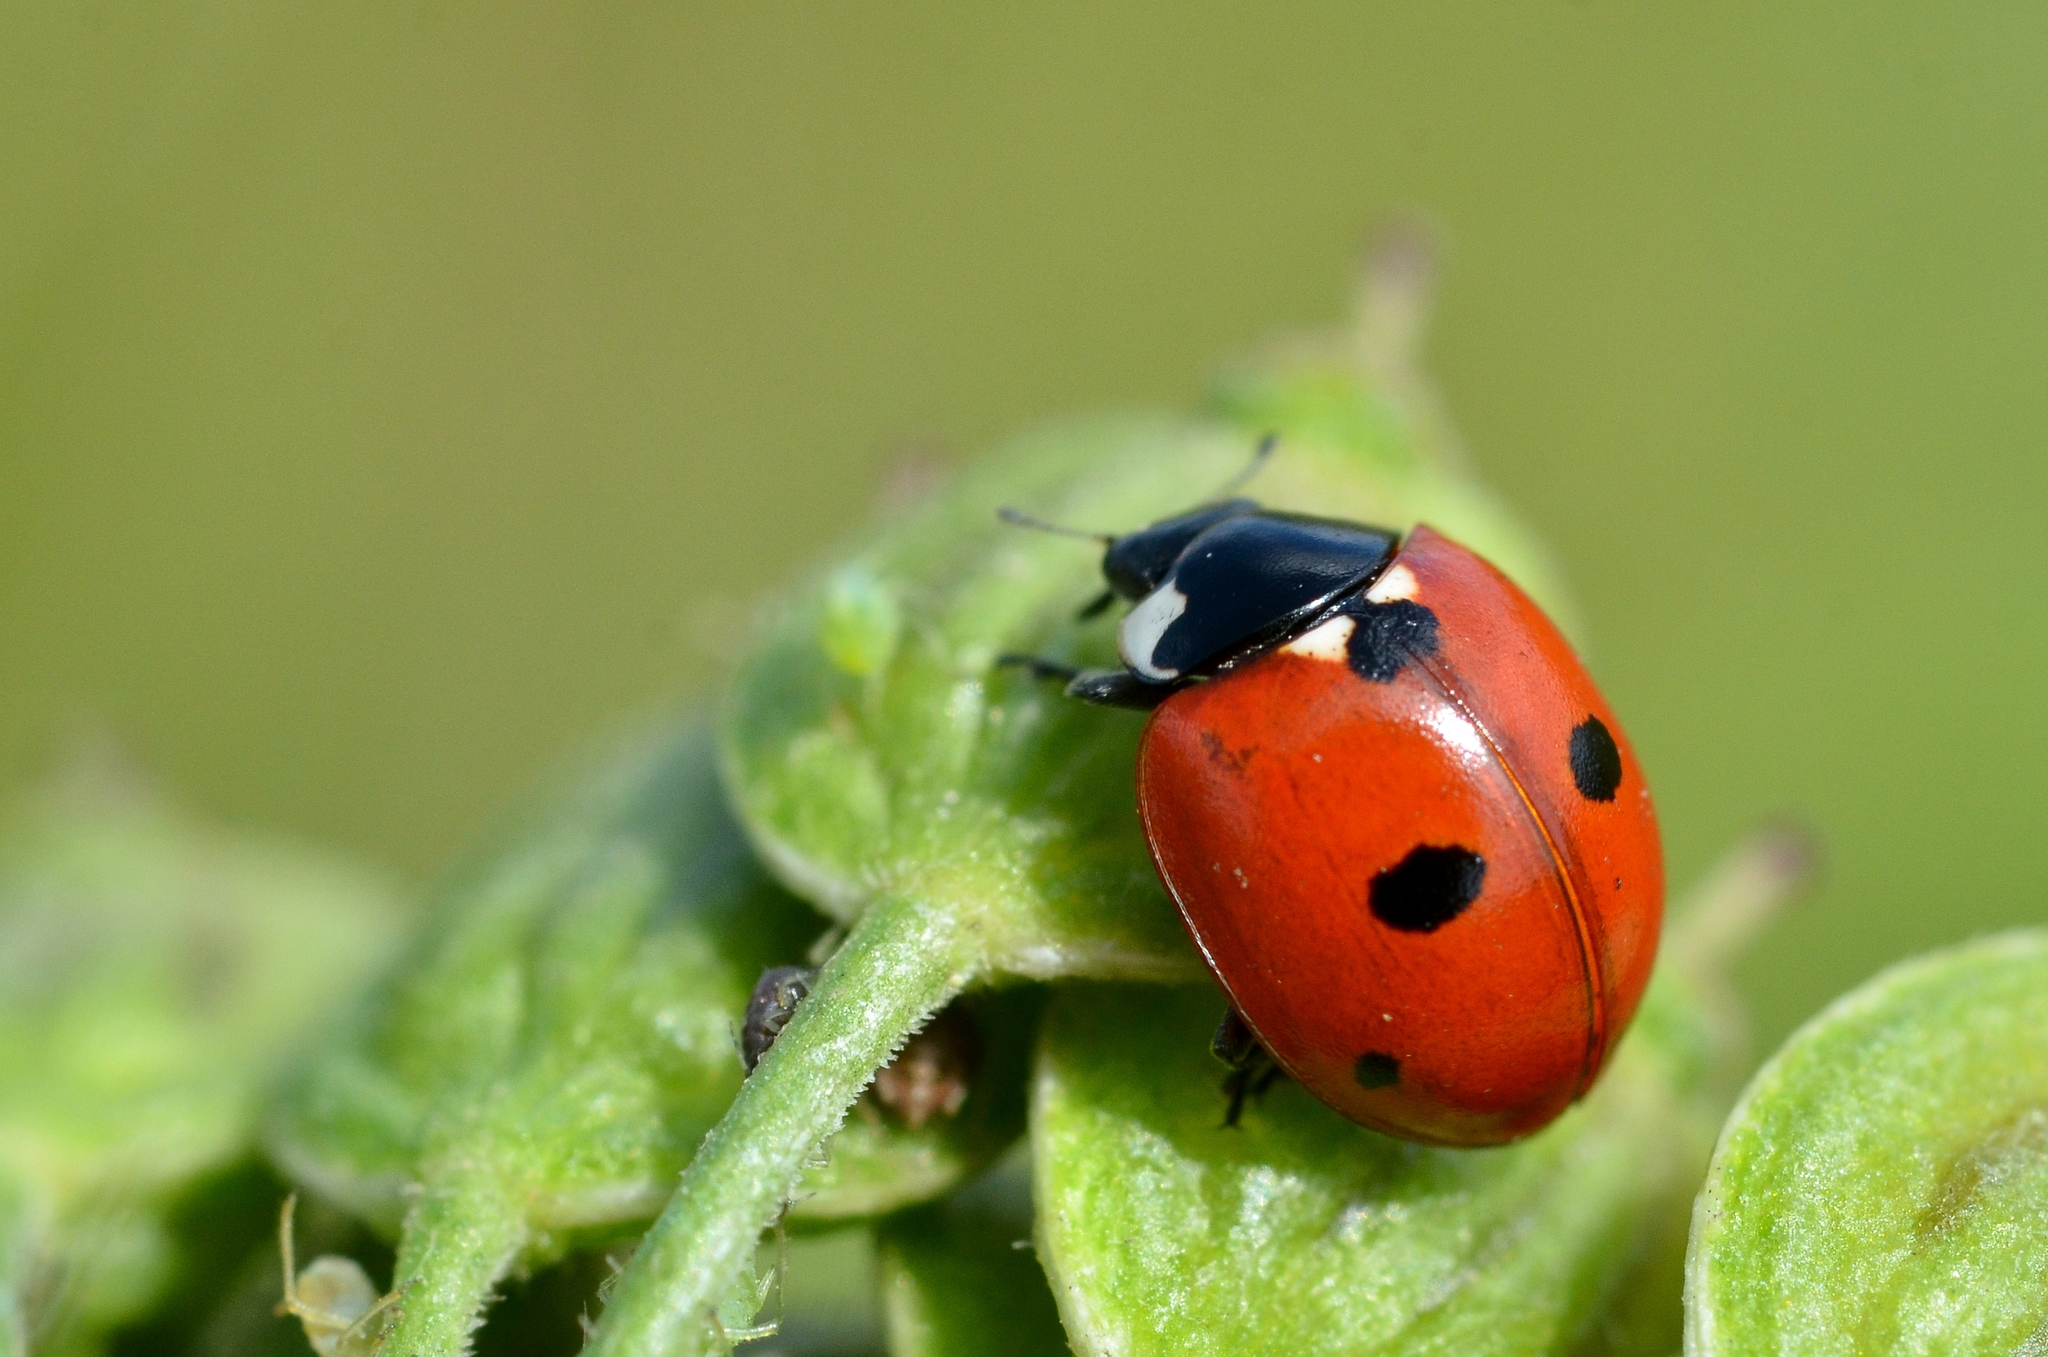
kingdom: Animalia
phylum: Arthropoda
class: Insecta
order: Coleoptera
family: Coccinellidae
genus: Coccinella
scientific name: Coccinella quinquepunctata
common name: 5-spot ladybird
